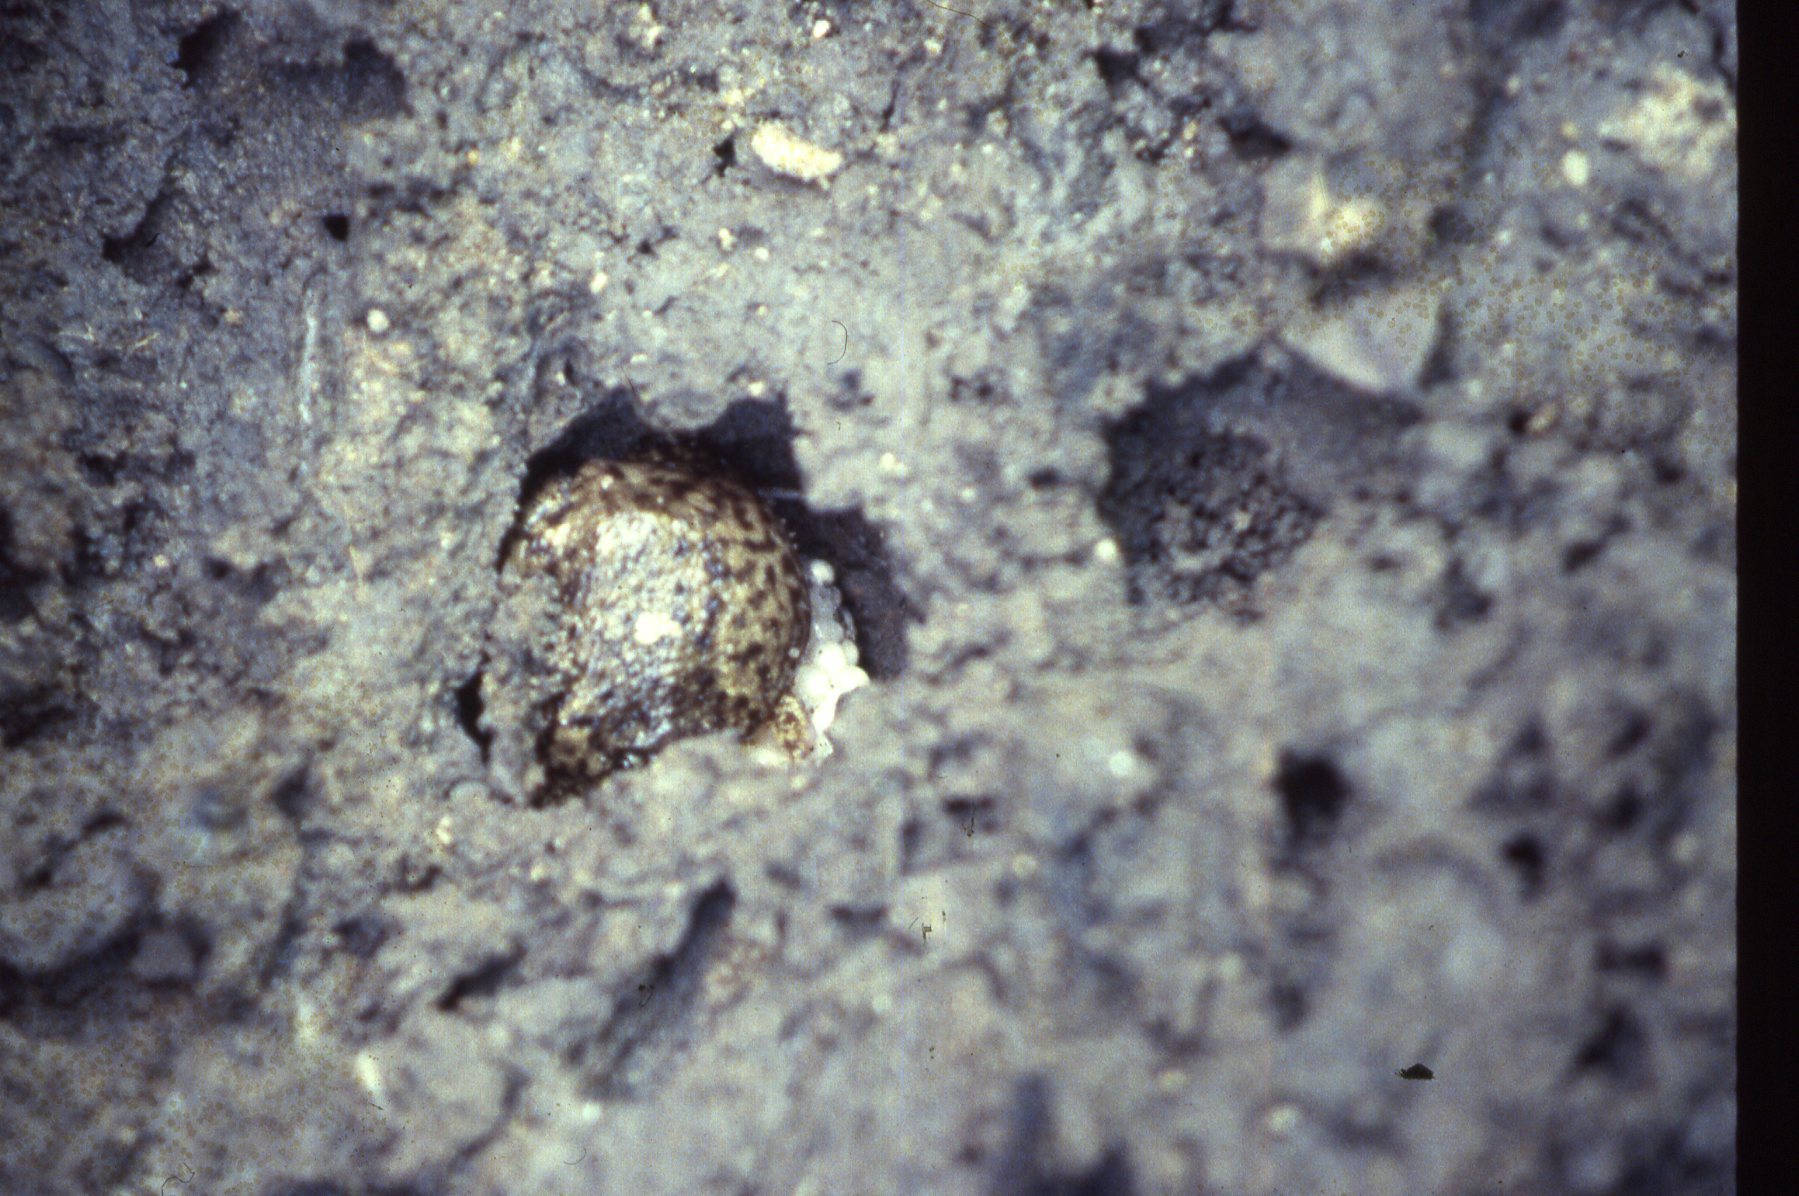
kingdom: Animalia
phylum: Chordata
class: Amphibia
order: Anura
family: Hemisotidae
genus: Hemisus
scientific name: Hemisus marmoratus
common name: Mottled shovel-nosed frog
